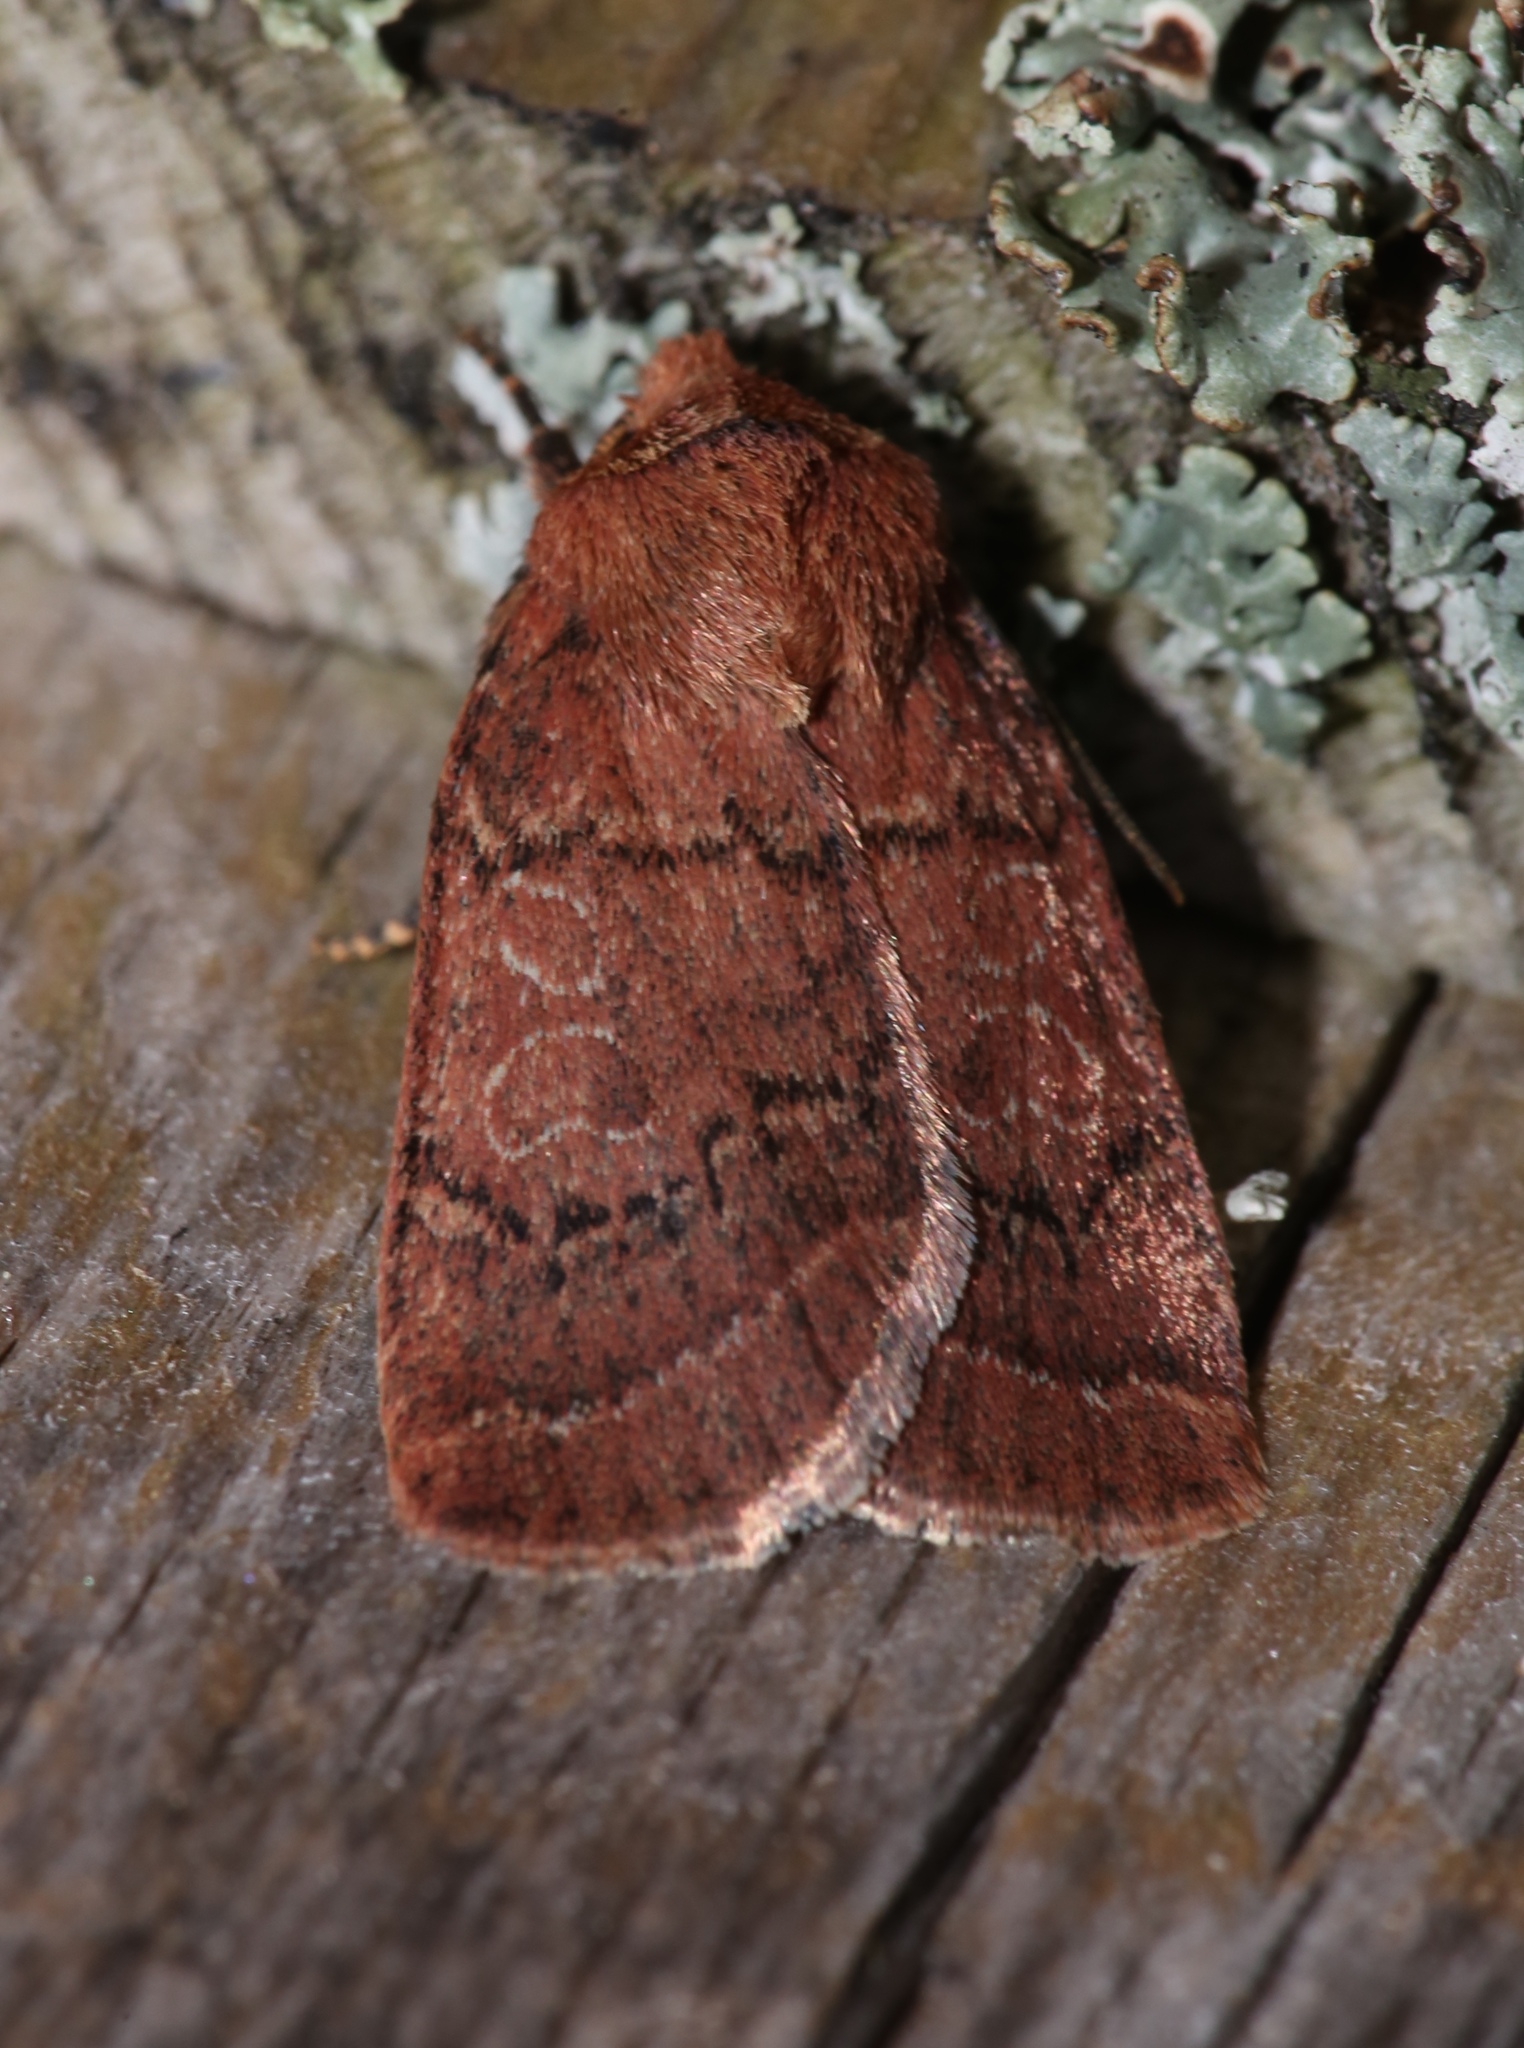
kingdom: Animalia
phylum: Arthropoda
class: Insecta
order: Lepidoptera
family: Noctuidae
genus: Orthodes
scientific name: Orthodes cynica
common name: Cynical quaker
